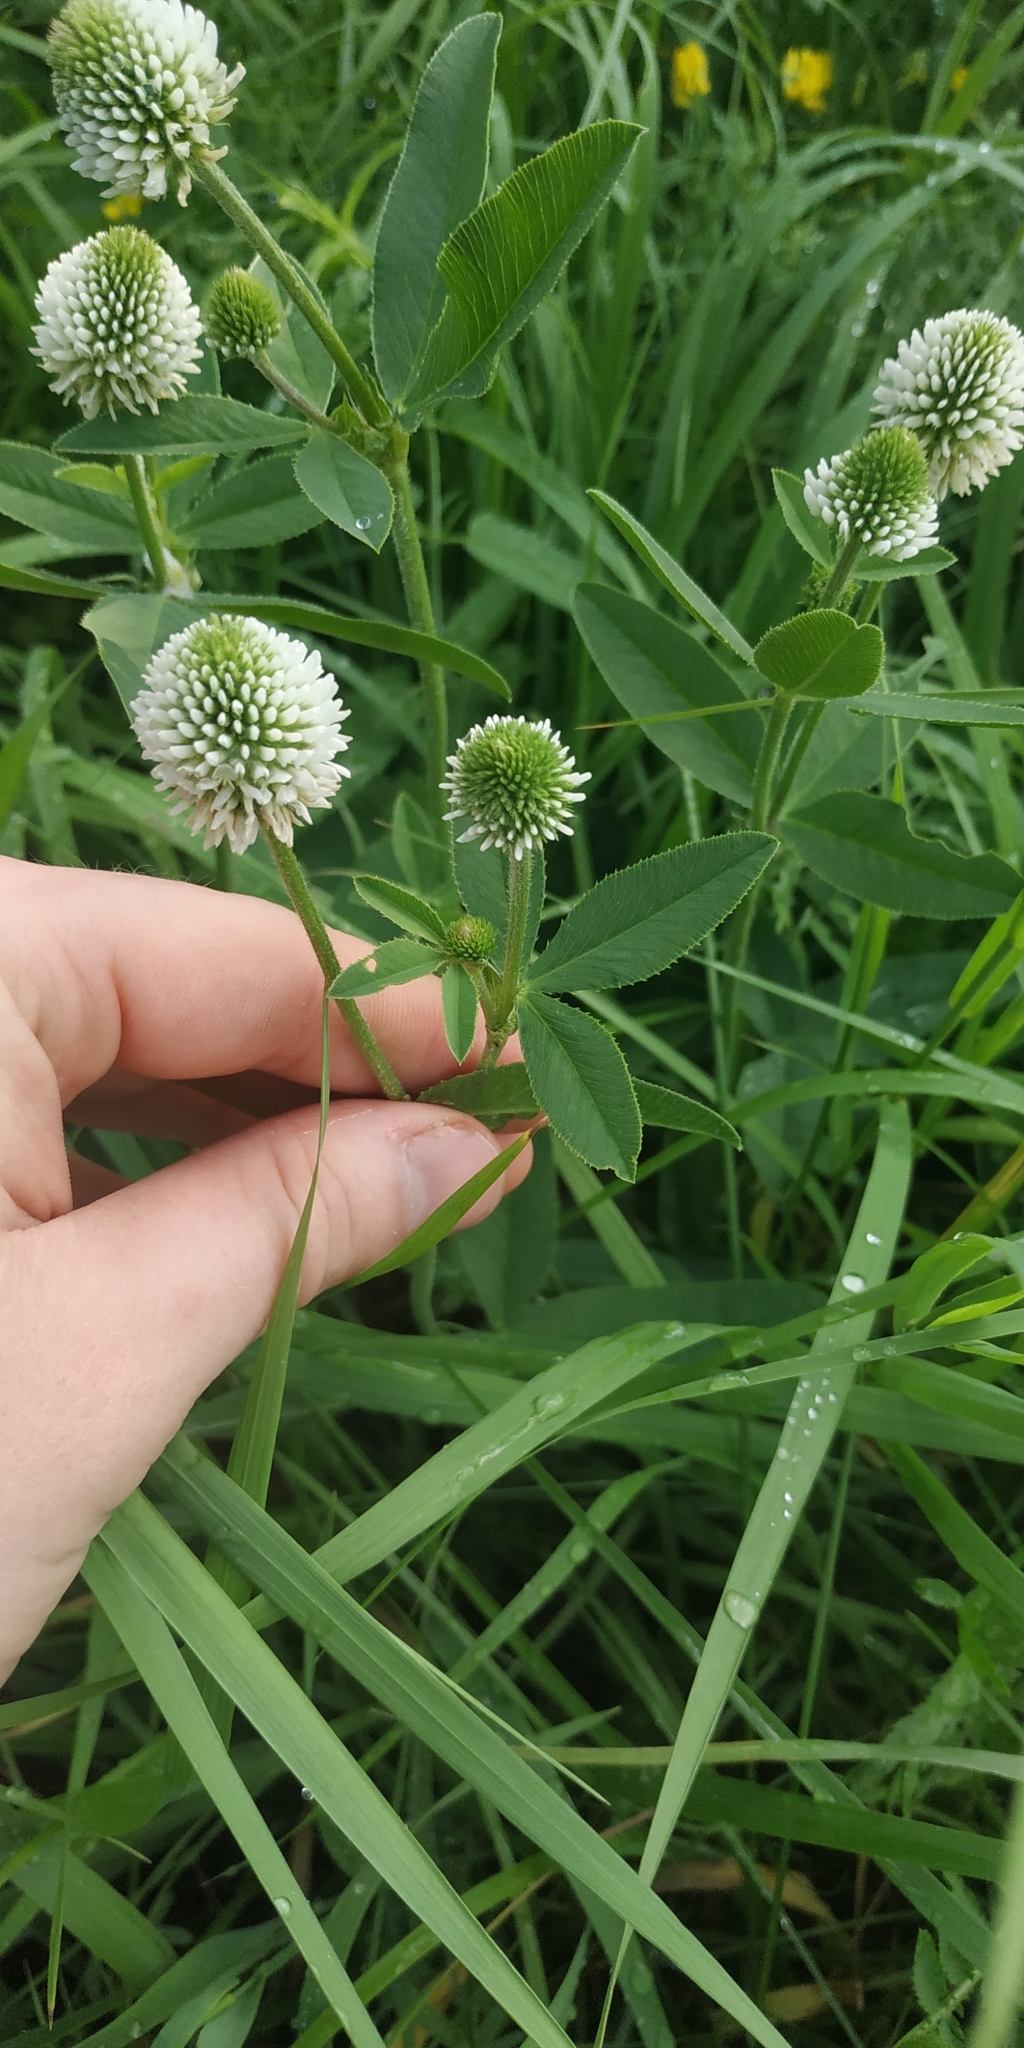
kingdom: Plantae
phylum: Tracheophyta
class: Magnoliopsida
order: Fabales
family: Fabaceae
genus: Trifolium
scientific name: Trifolium montanum
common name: Mountain clover
